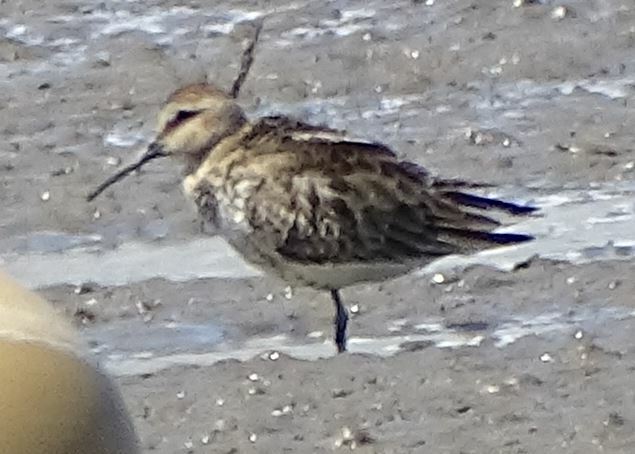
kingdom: Animalia
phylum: Chordata
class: Aves
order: Charadriiformes
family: Scolopacidae
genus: Calidris
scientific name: Calidris alpina
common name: Dunlin
